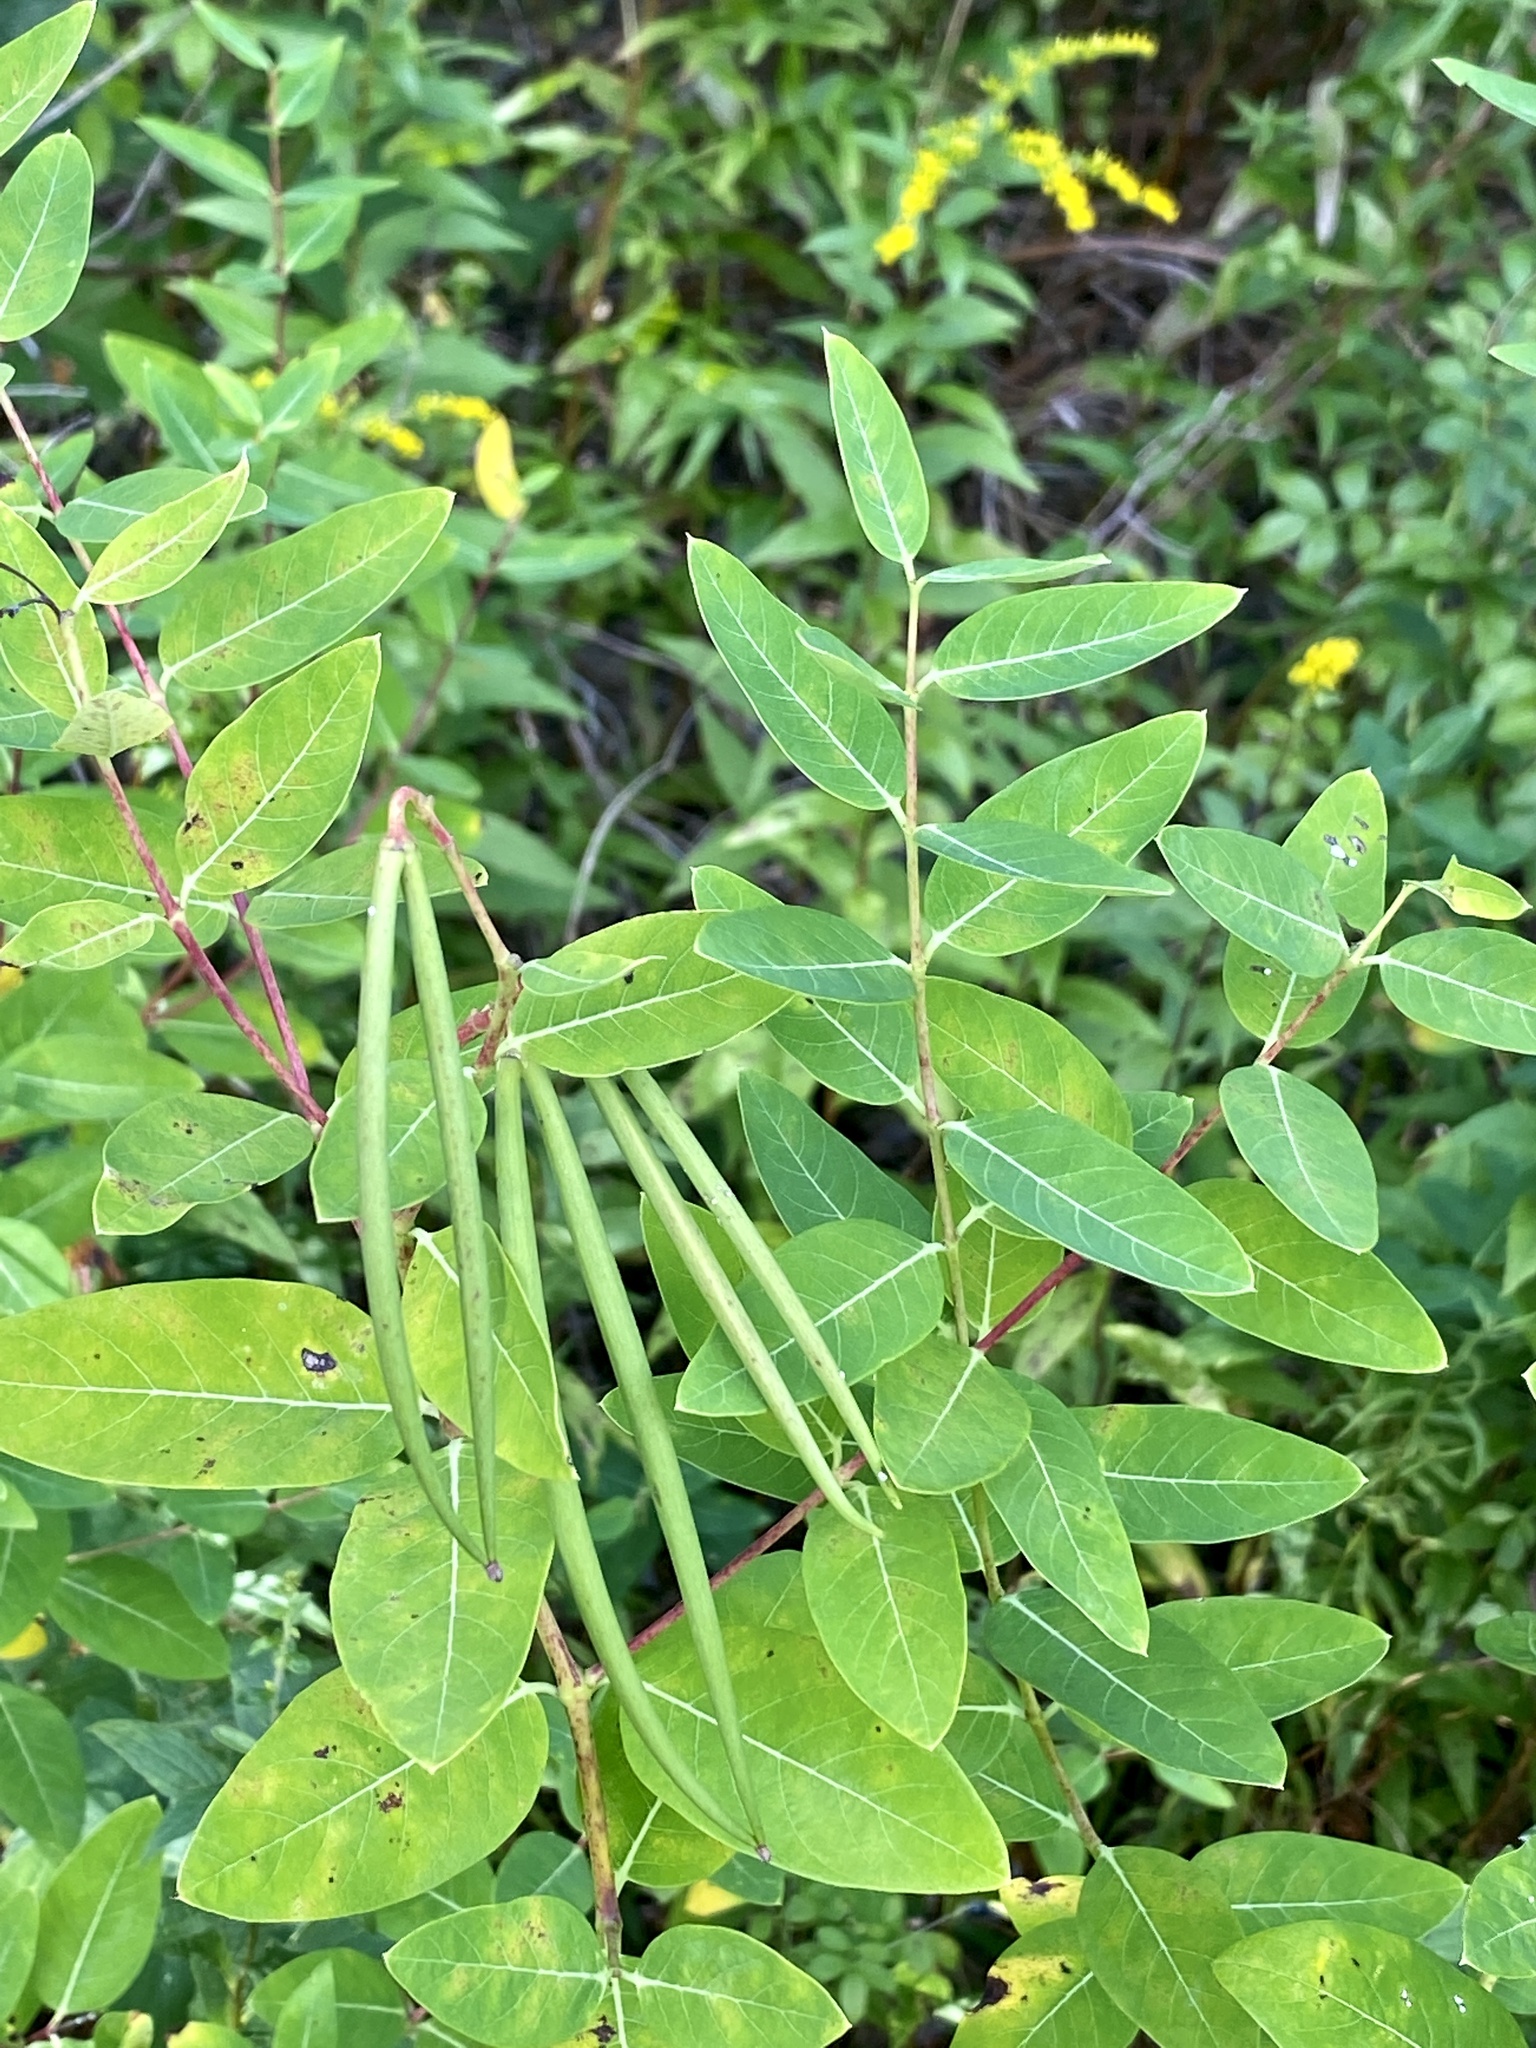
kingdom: Plantae
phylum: Tracheophyta
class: Magnoliopsida
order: Gentianales
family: Apocynaceae
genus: Apocynum
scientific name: Apocynum cannabinum
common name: Hemp dogbane
